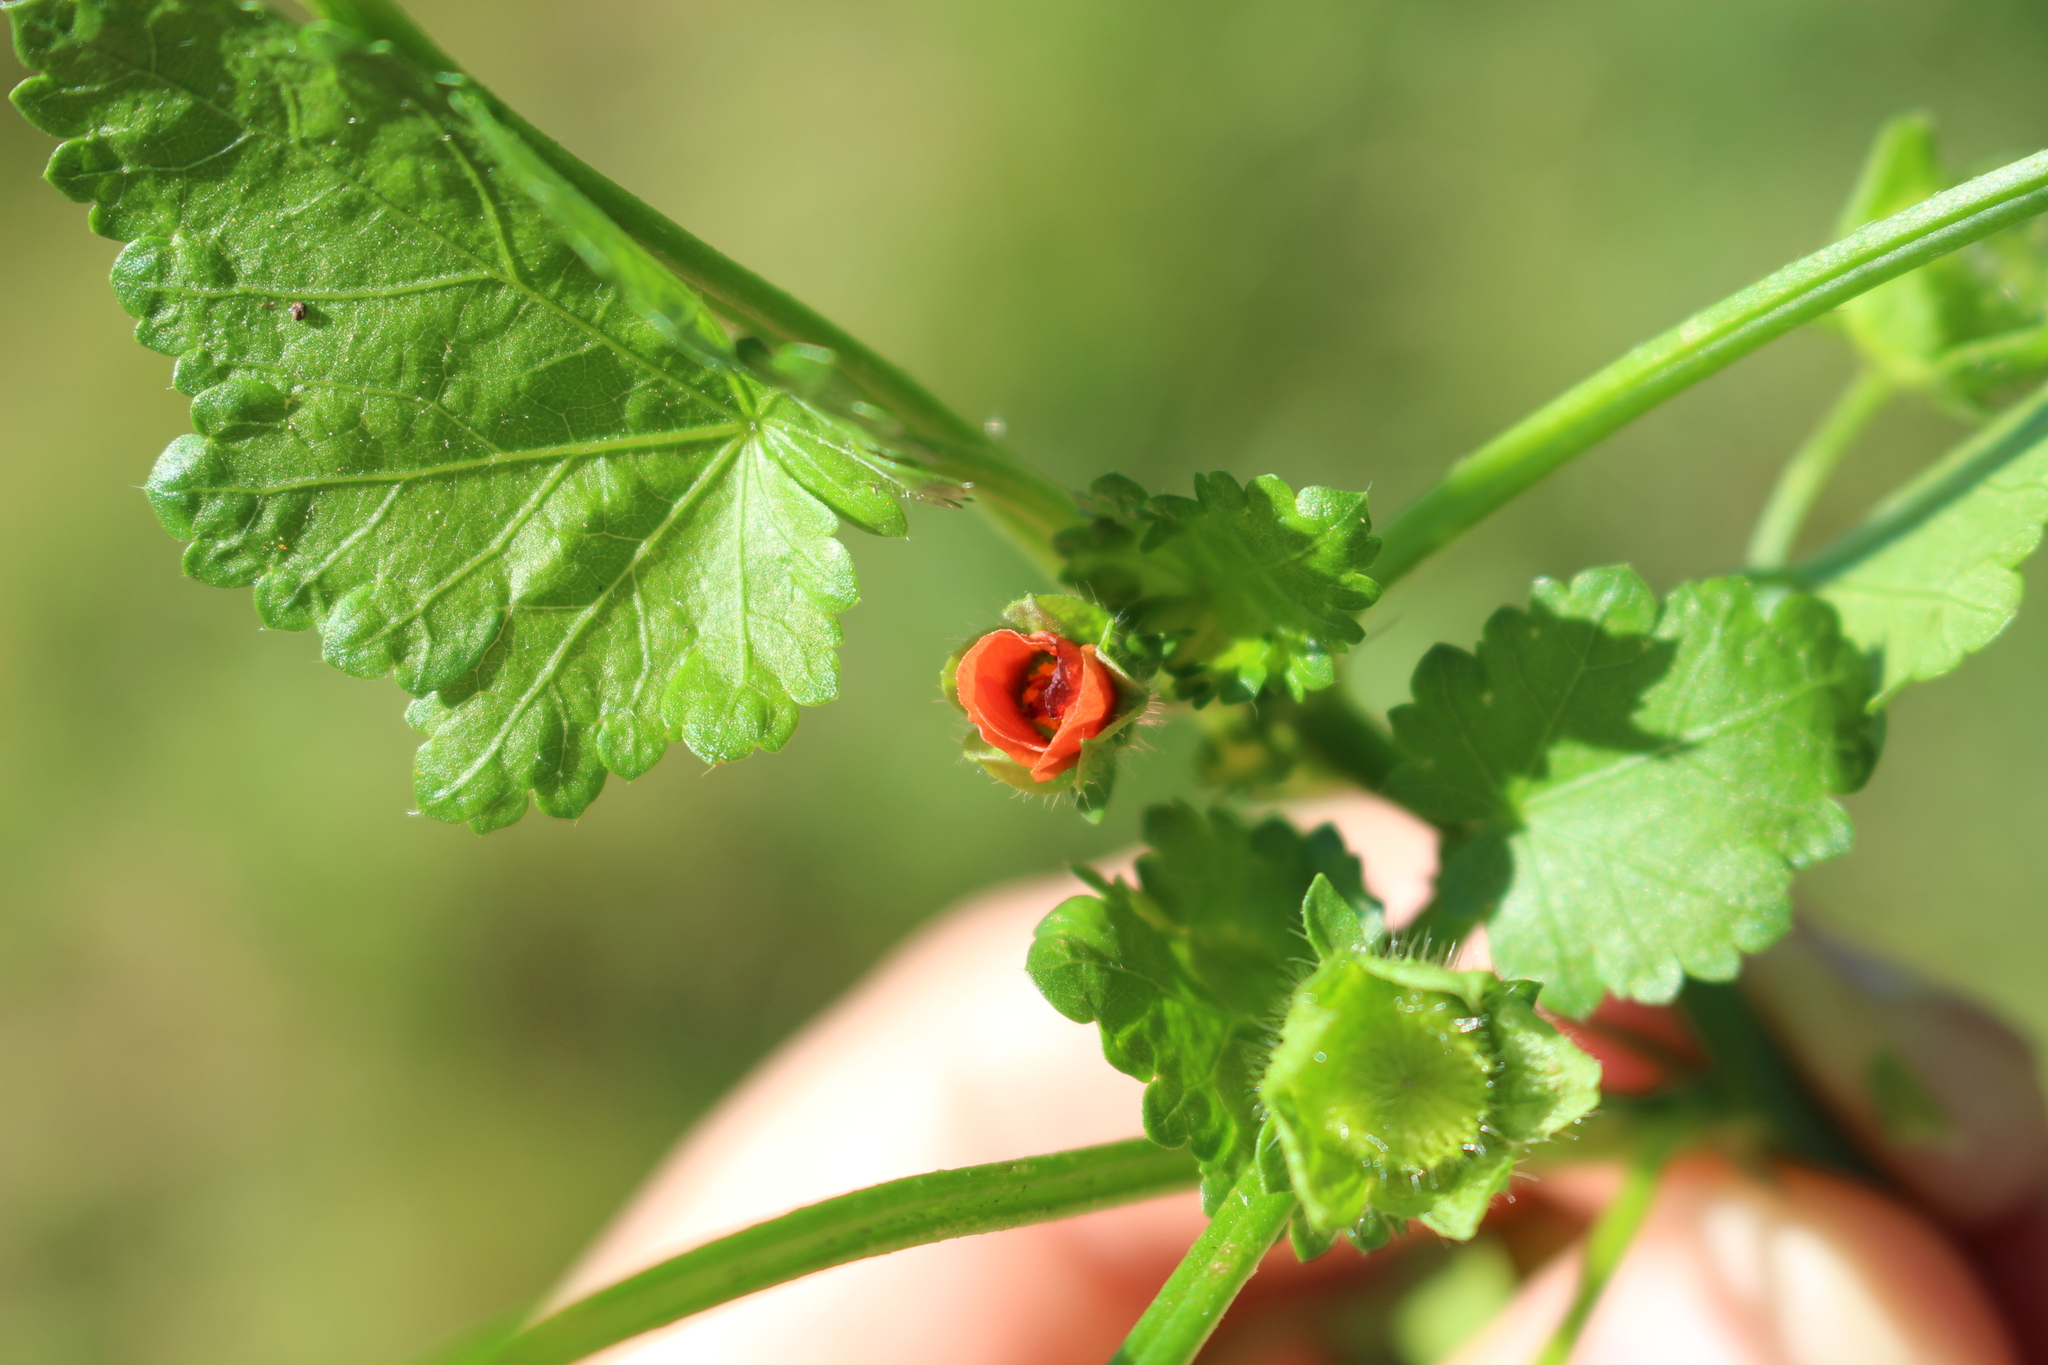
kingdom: Plantae
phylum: Tracheophyta
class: Magnoliopsida
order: Malvales
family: Malvaceae
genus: Modiola
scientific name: Modiola caroliniana
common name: Carolina bristlemallow
